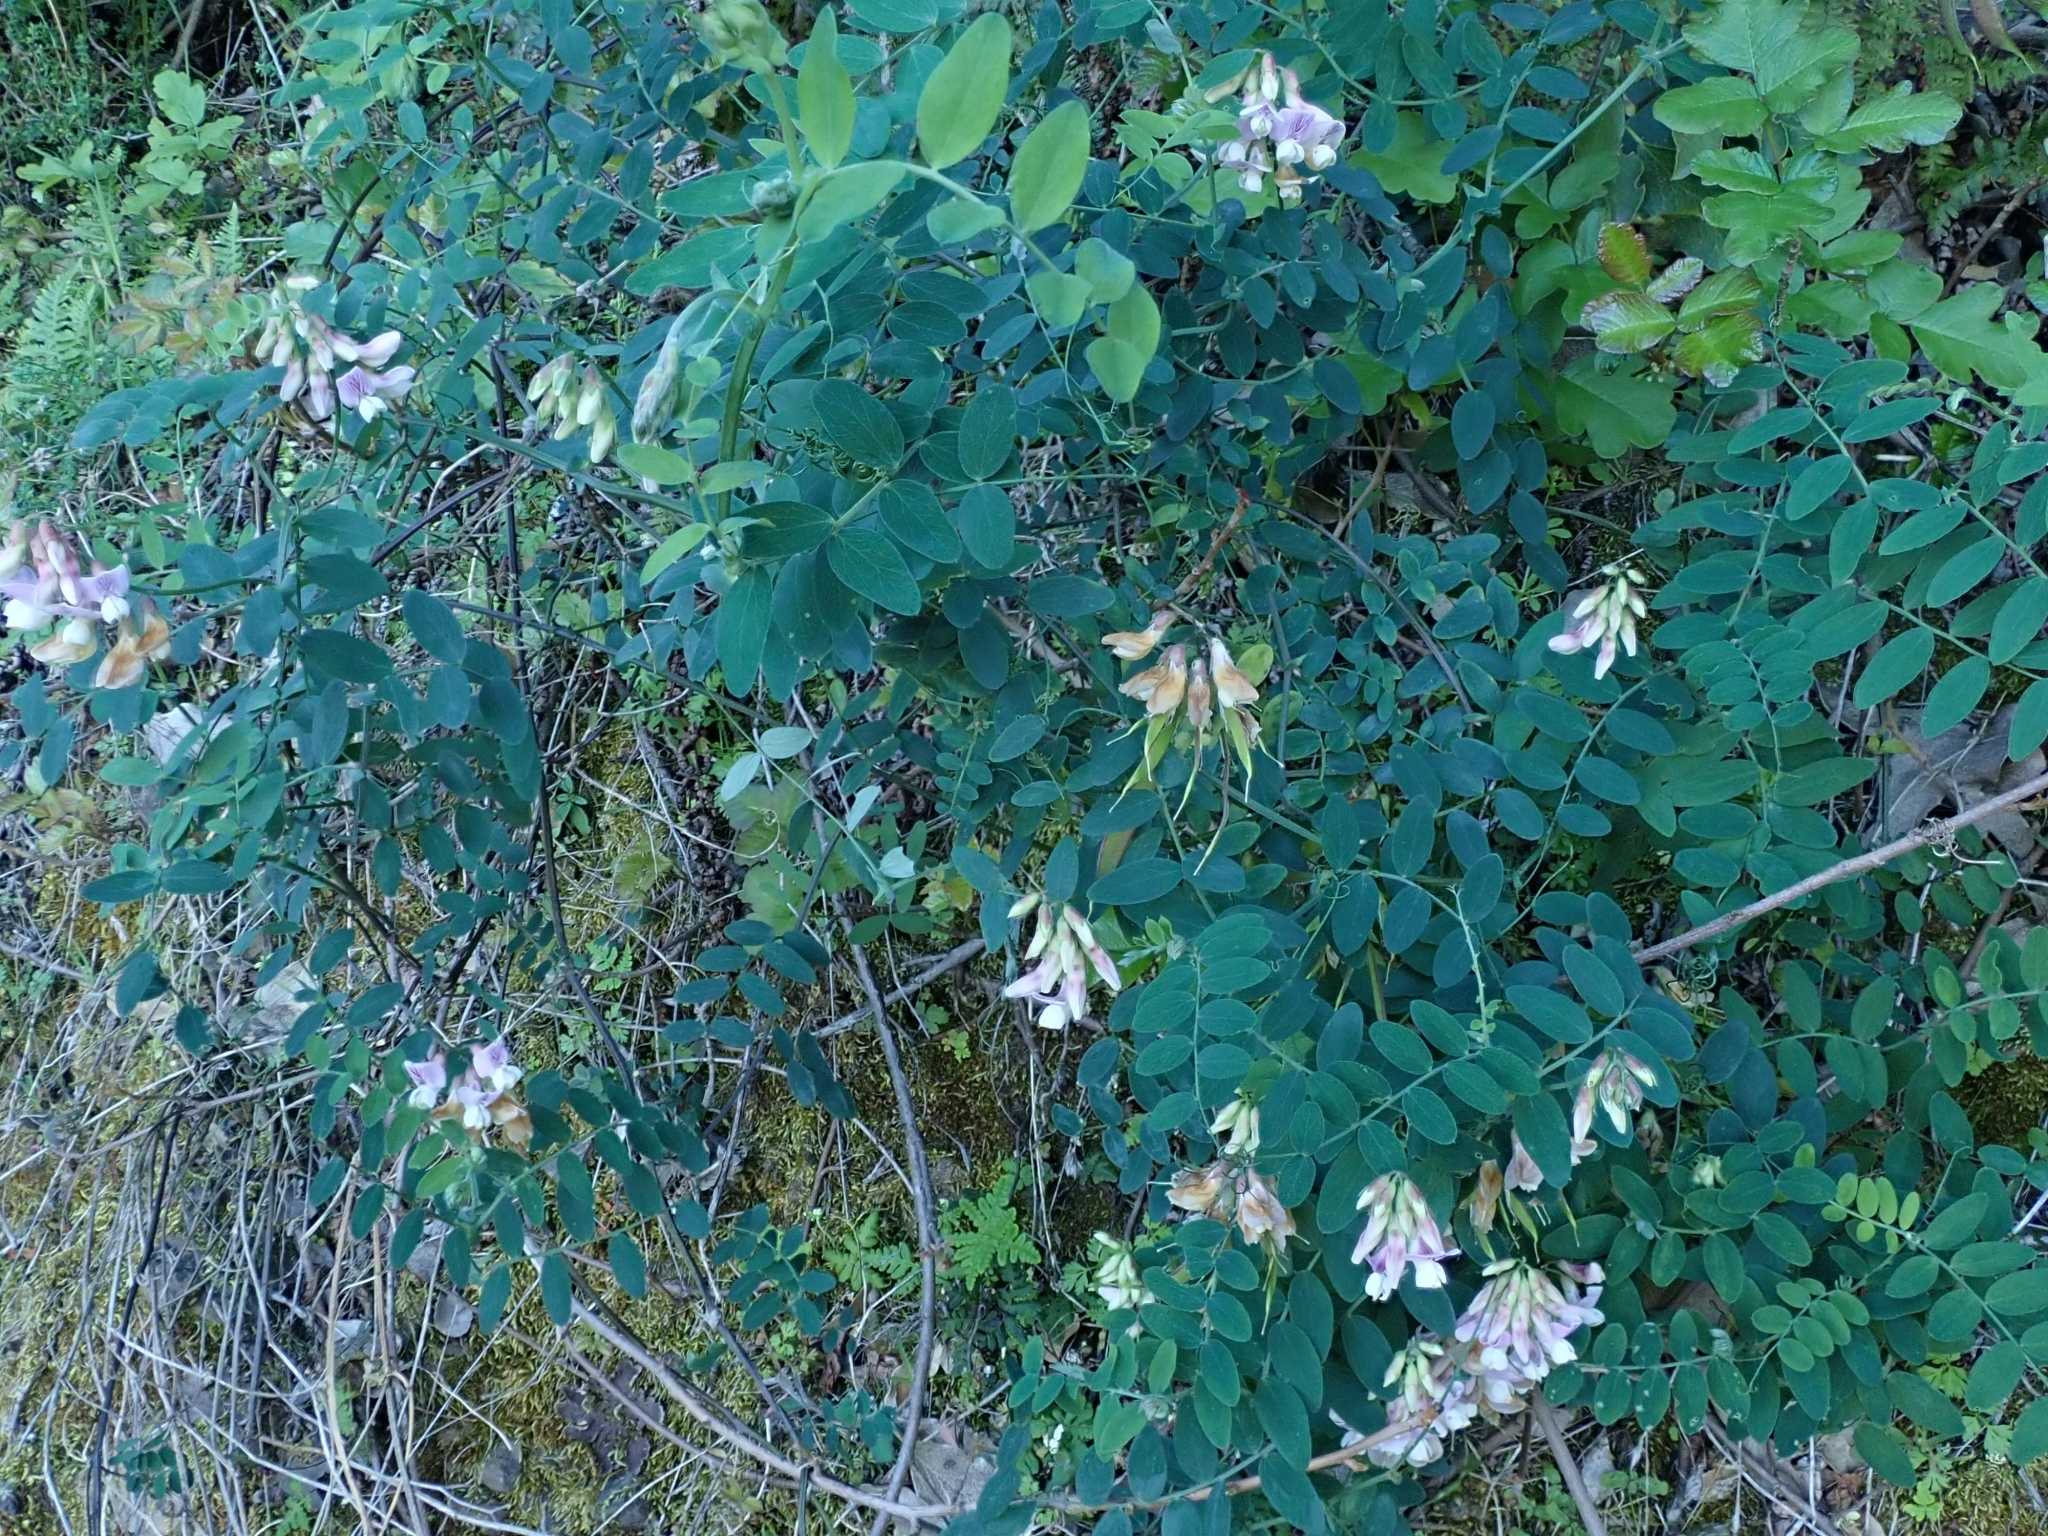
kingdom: Plantae
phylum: Tracheophyta
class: Magnoliopsida
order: Fabales
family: Fabaceae
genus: Lathyrus
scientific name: Lathyrus vestitus
